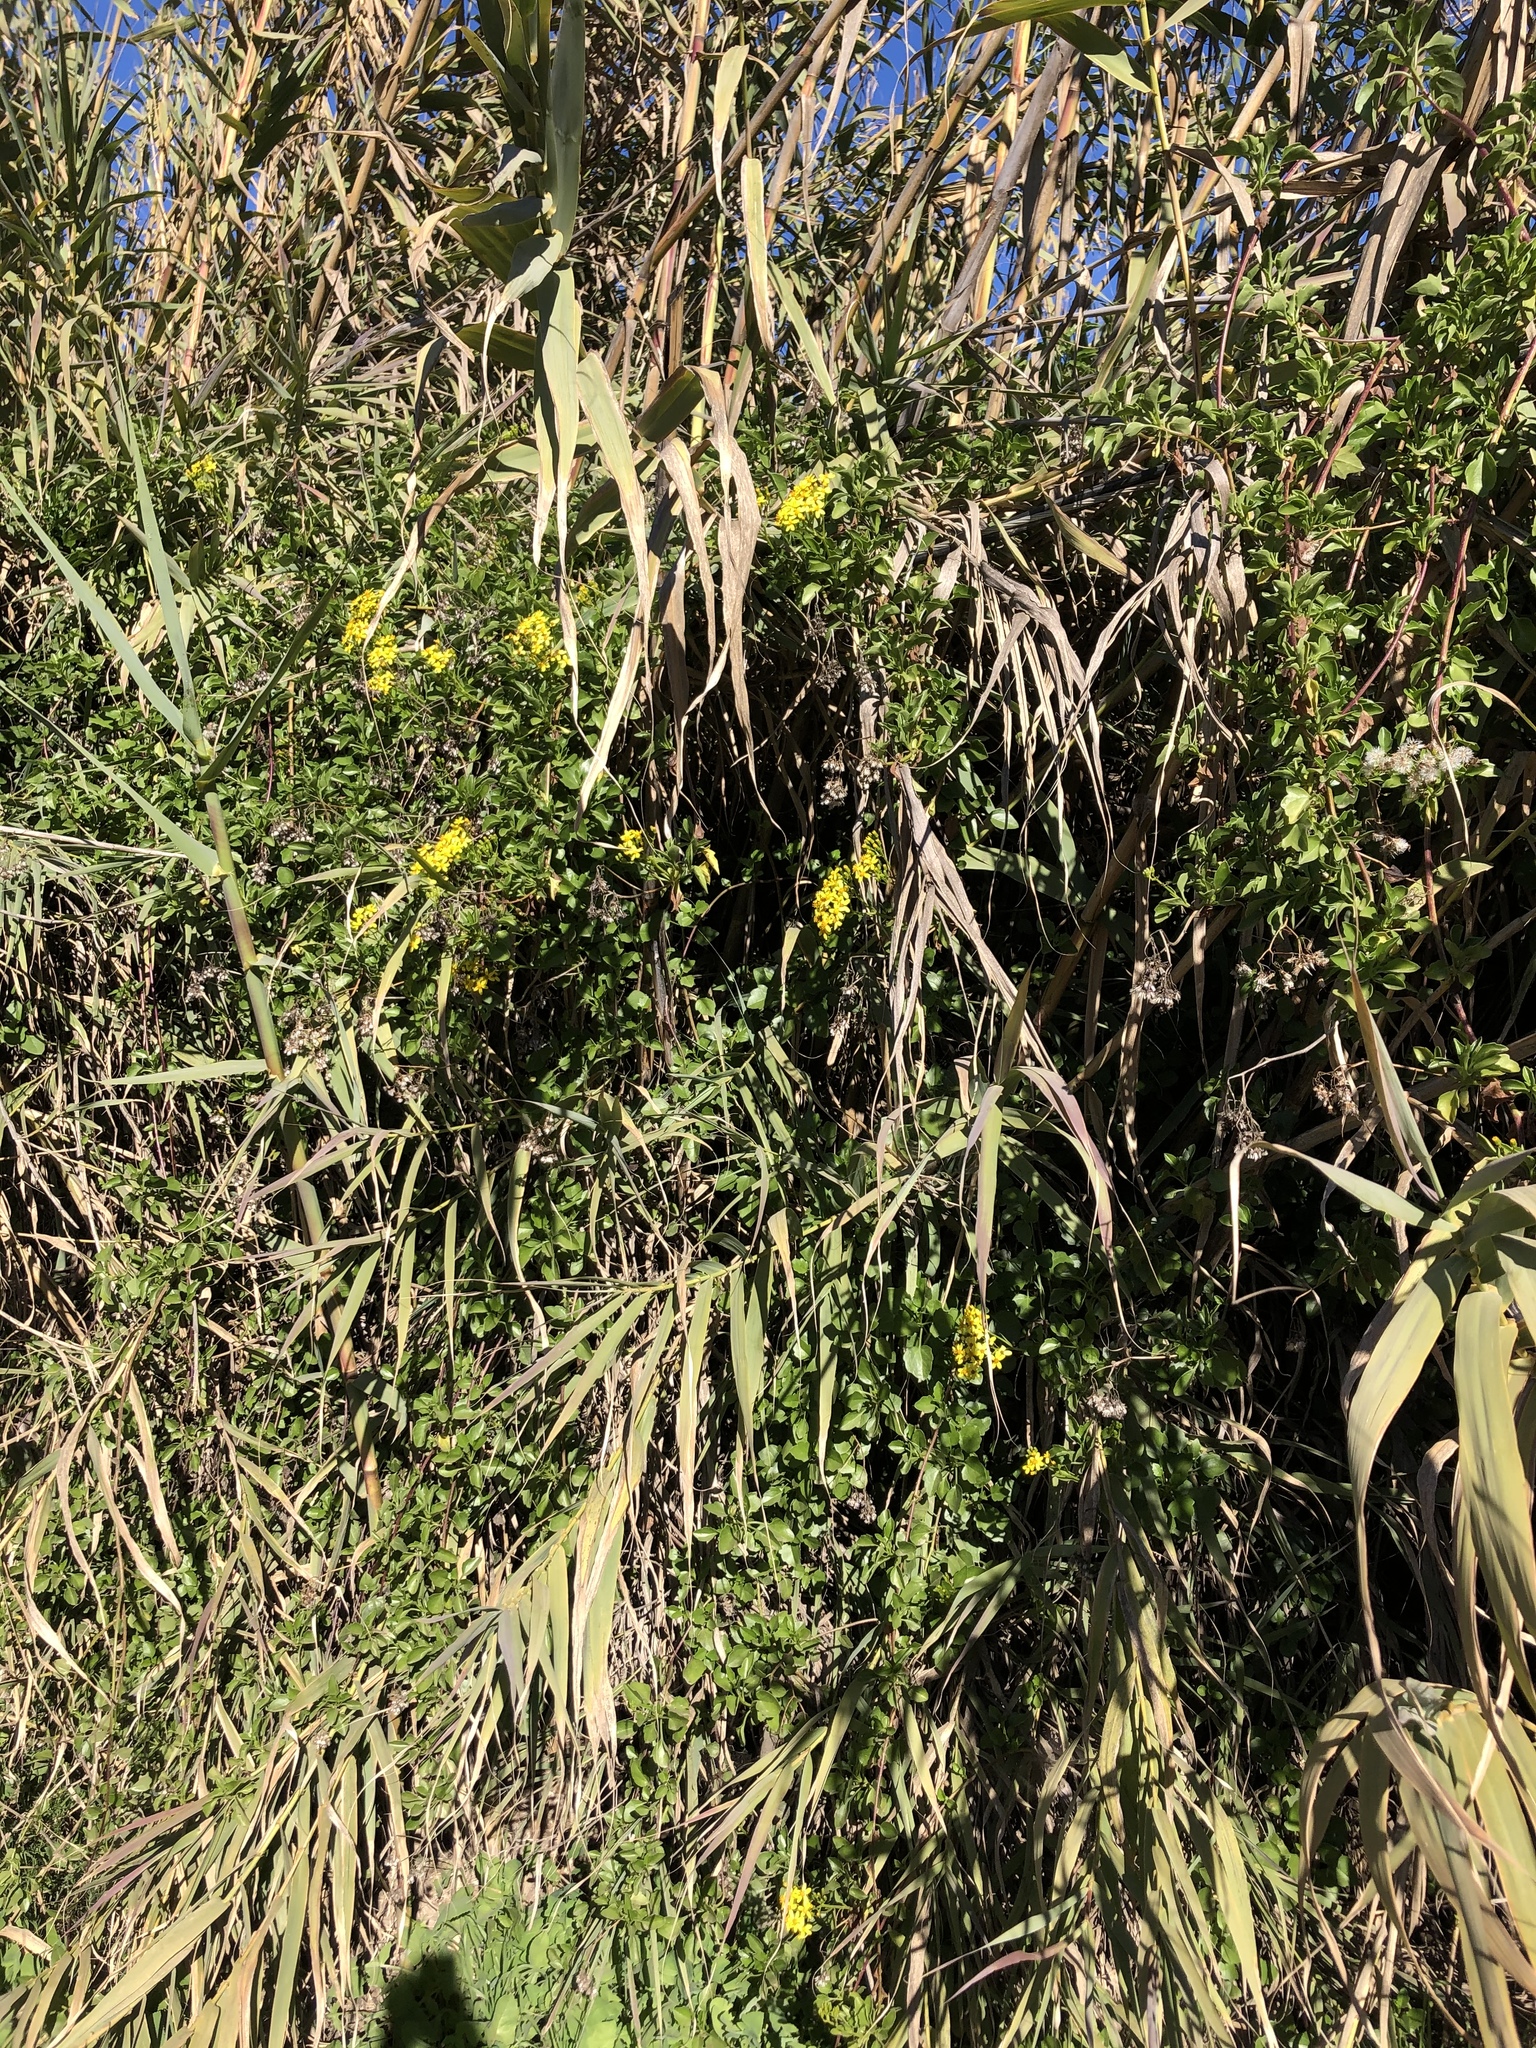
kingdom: Plantae
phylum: Tracheophyta
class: Magnoliopsida
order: Asterales
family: Asteraceae
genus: Senecio
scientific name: Senecio angulatus
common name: Climbing groundsel
